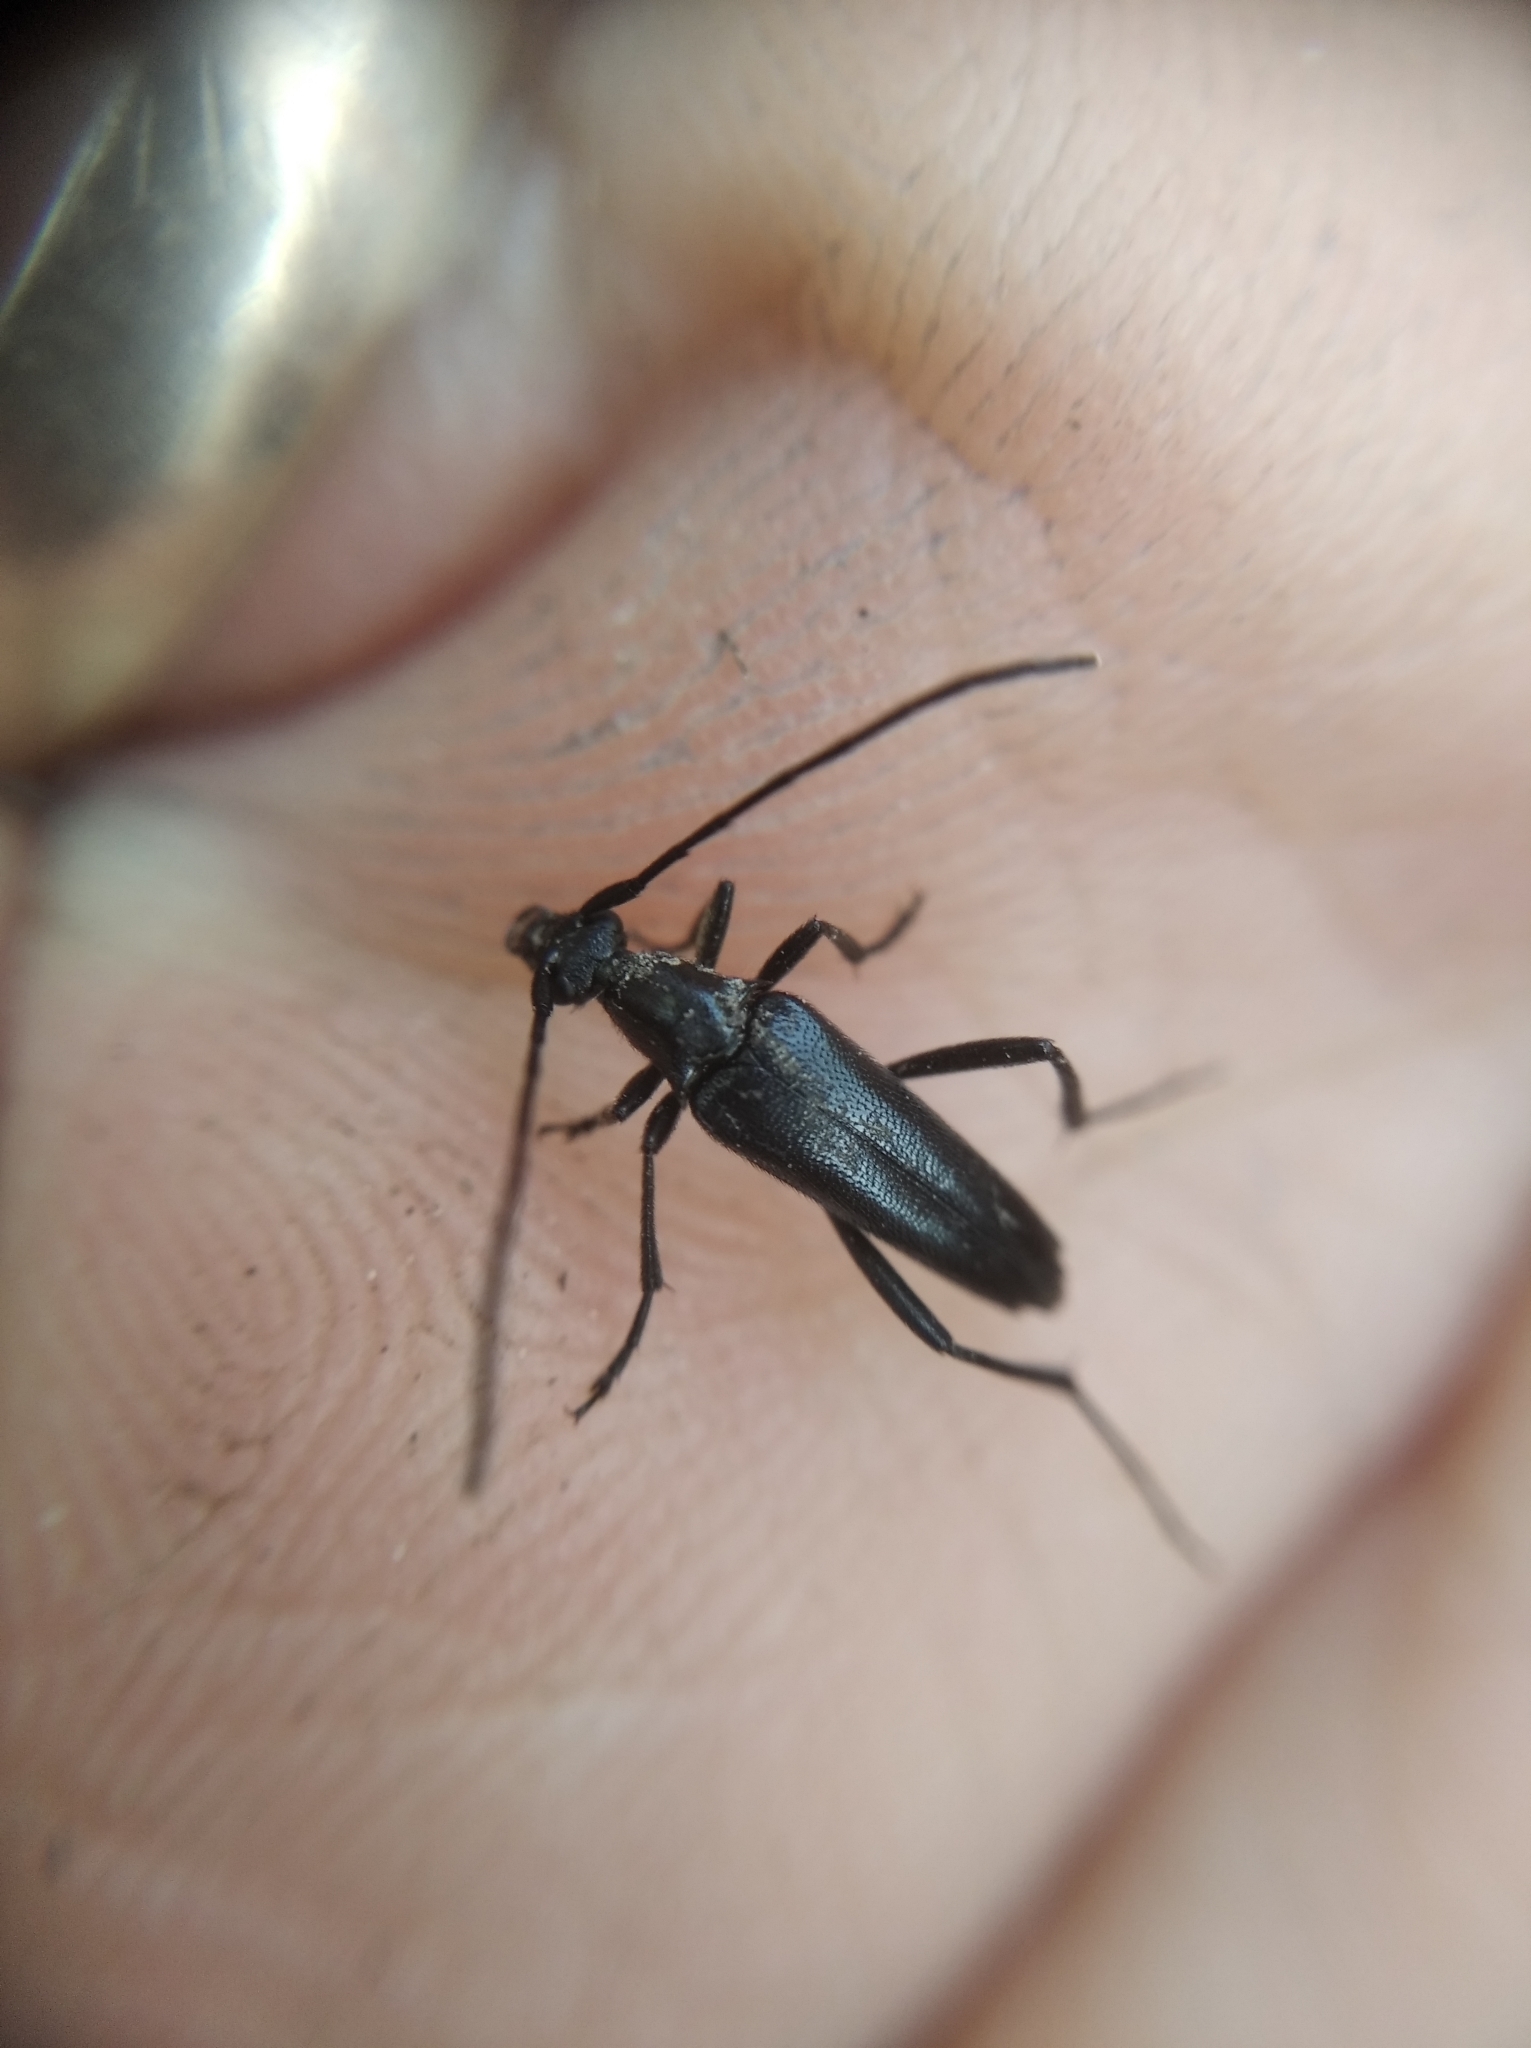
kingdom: Animalia
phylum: Arthropoda
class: Insecta
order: Coleoptera
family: Cerambycidae
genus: Stenurella
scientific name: Stenurella nigra
